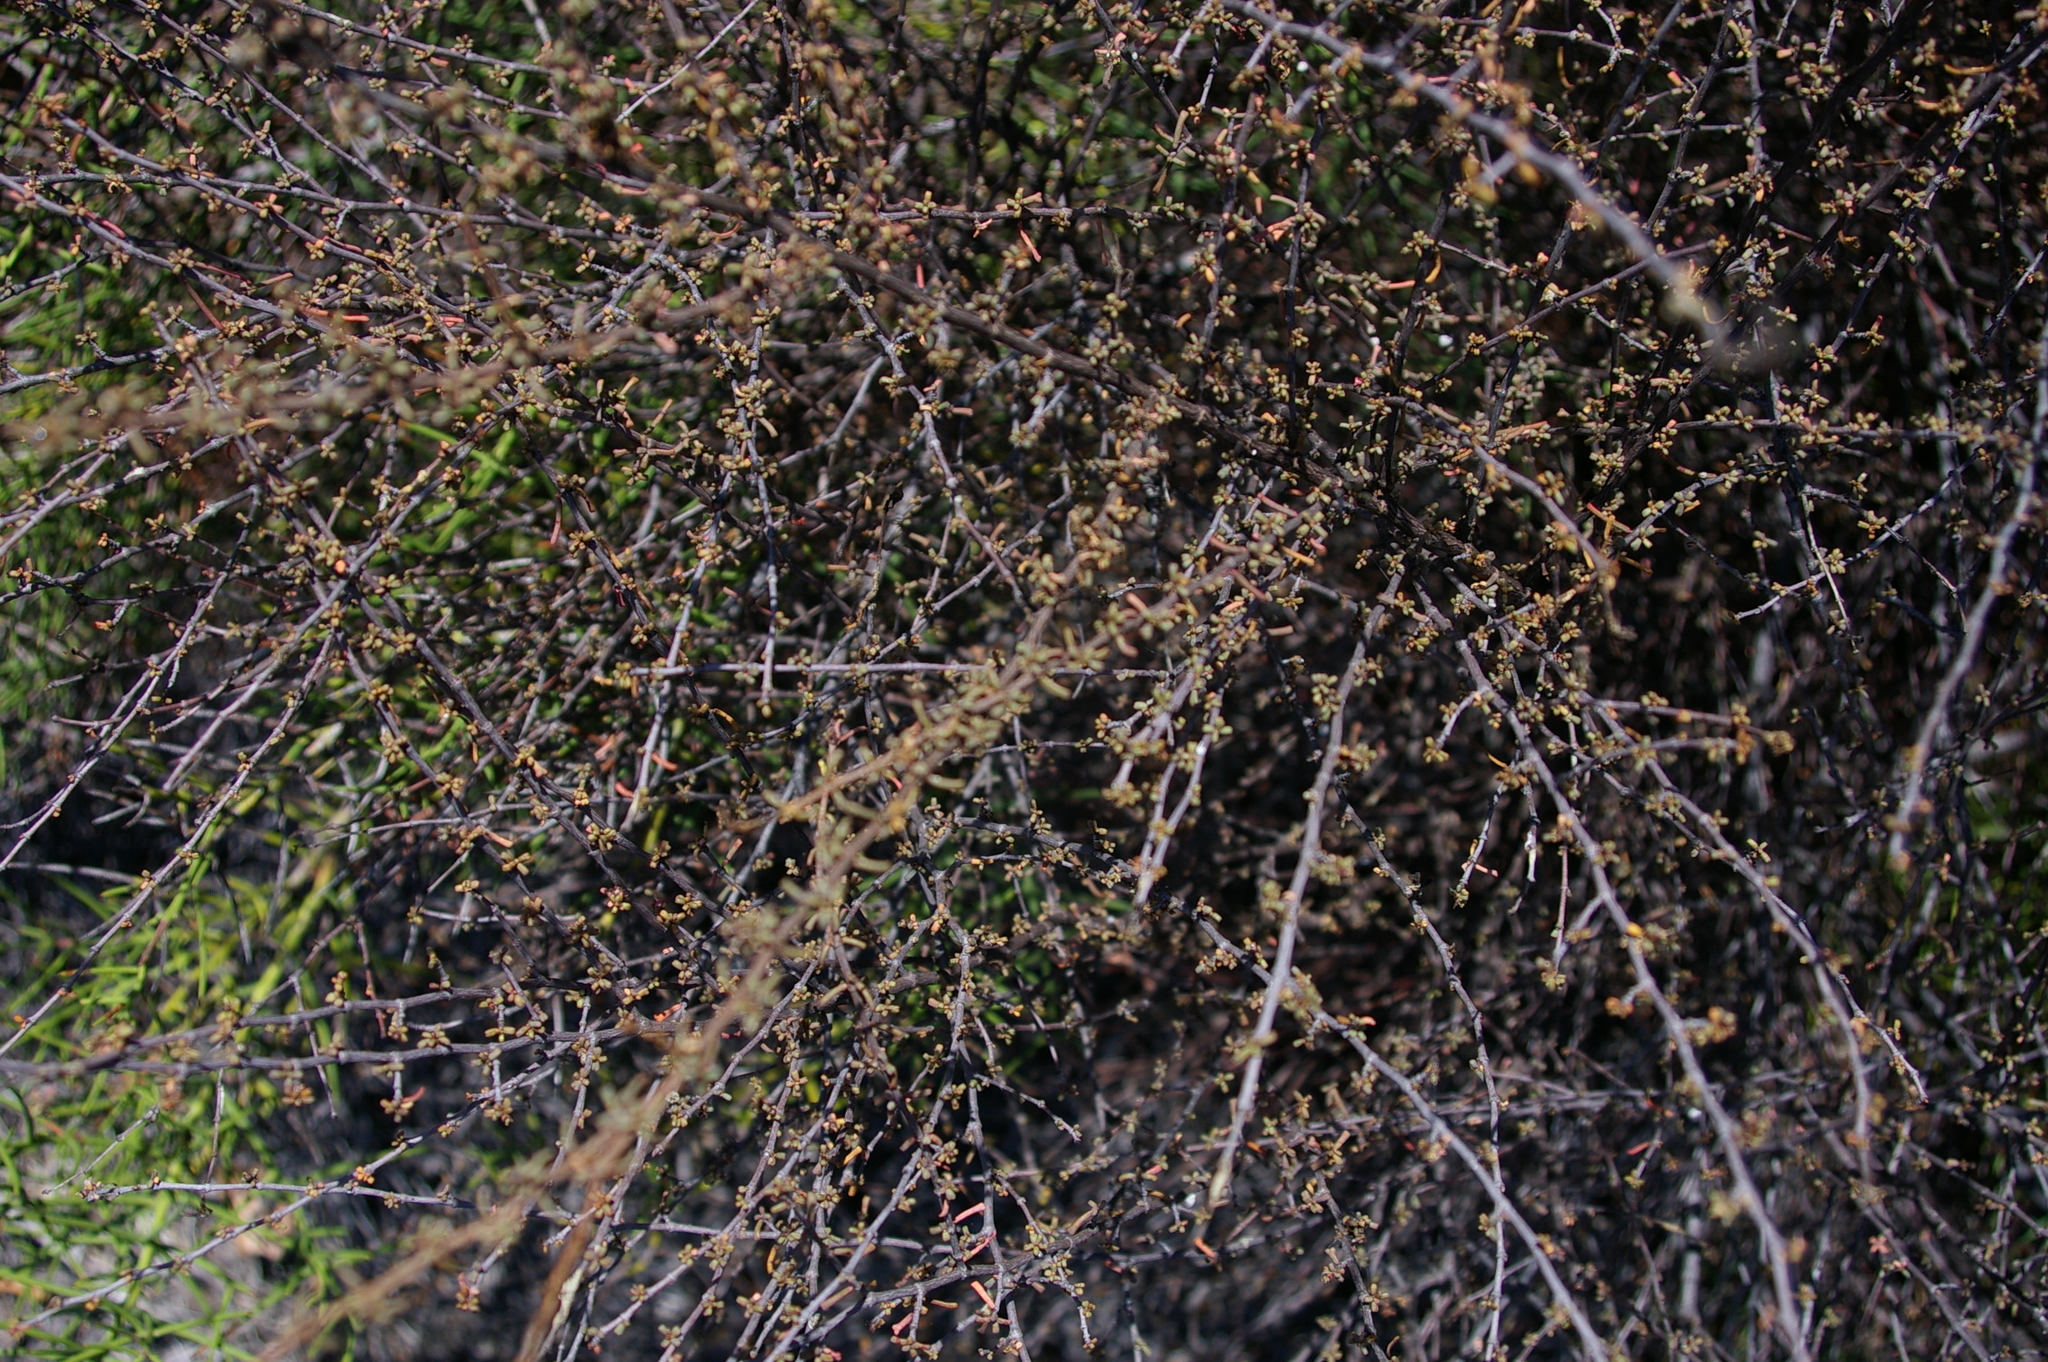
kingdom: Plantae
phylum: Tracheophyta
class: Magnoliopsida
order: Solanales
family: Solanaceae
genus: Lycium
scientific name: Lycium minimum
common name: Desert thorn
